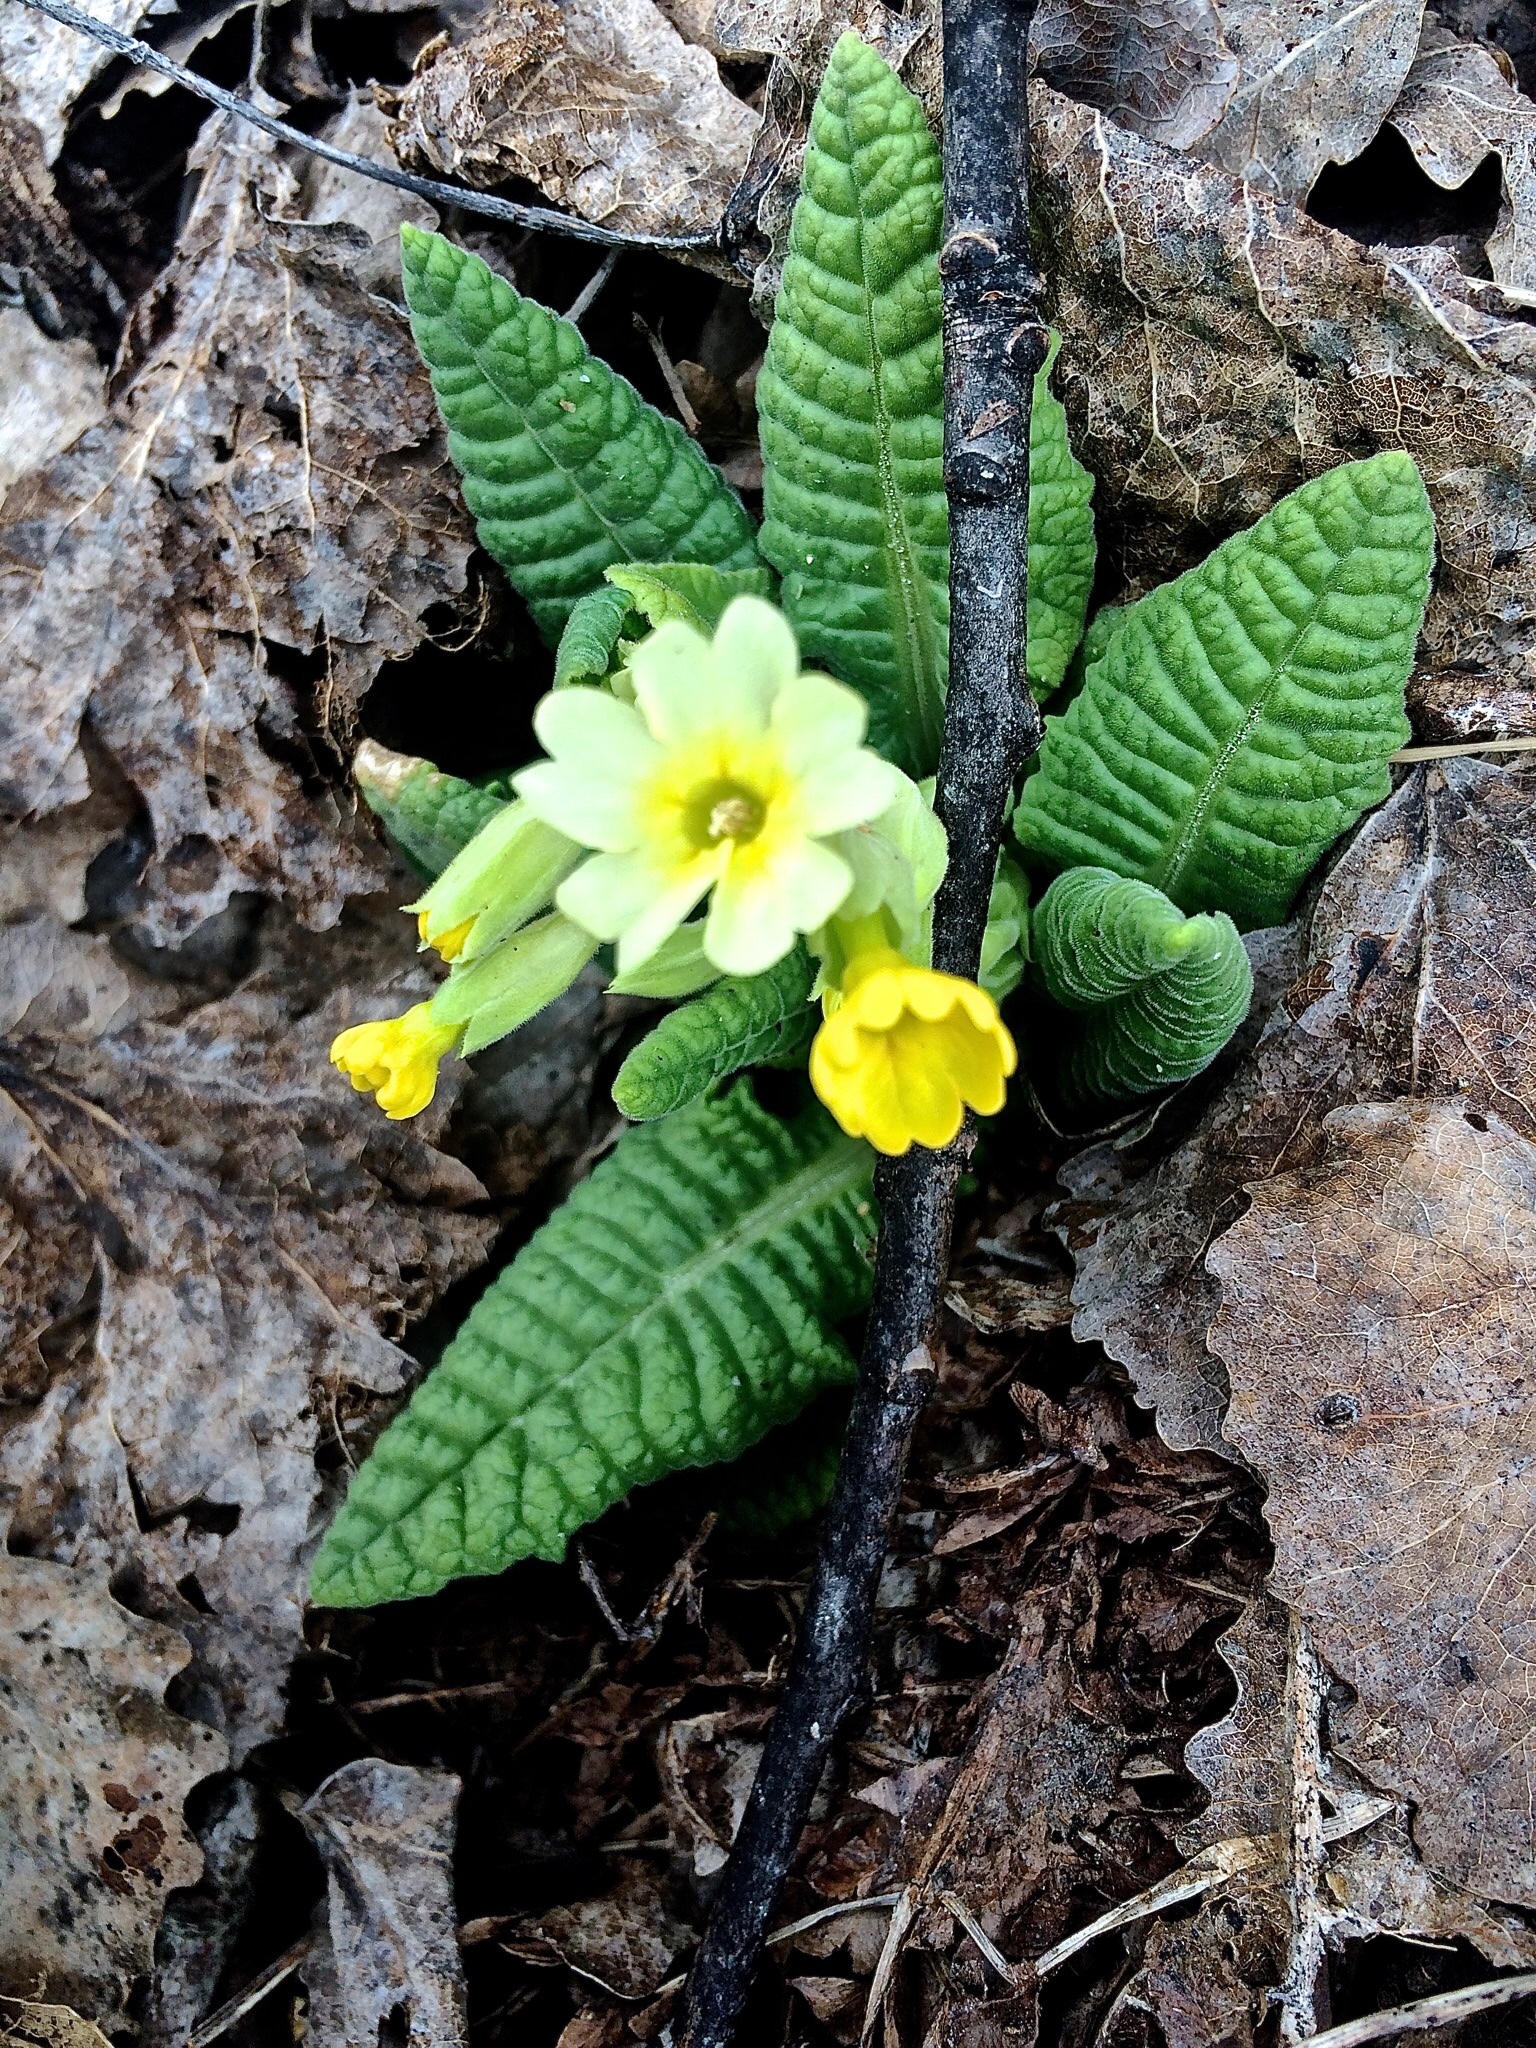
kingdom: Plantae
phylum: Tracheophyta
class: Magnoliopsida
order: Ericales
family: Primulaceae
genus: Primula
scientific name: Primula veris
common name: Cowslip
